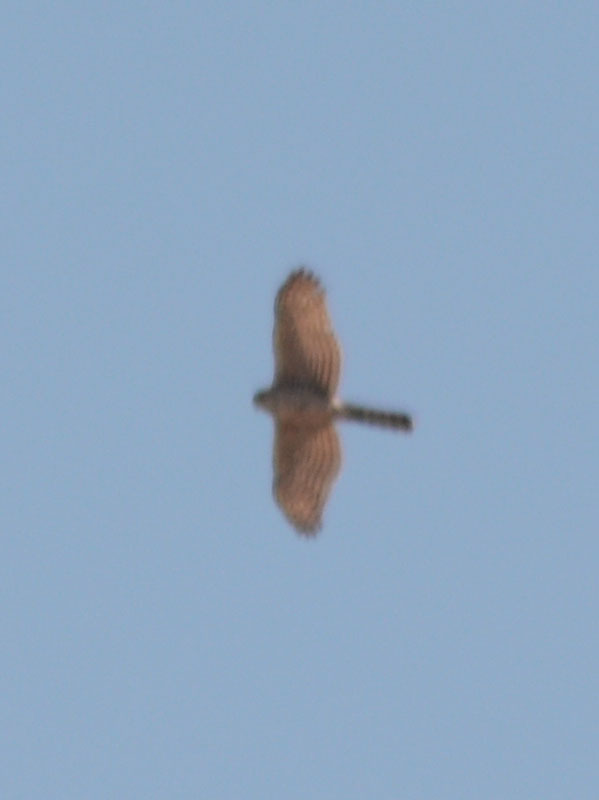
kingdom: Animalia
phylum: Chordata
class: Aves
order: Accipitriformes
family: Accipitridae
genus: Accipiter
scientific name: Accipiter cooperii
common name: Cooper's hawk
